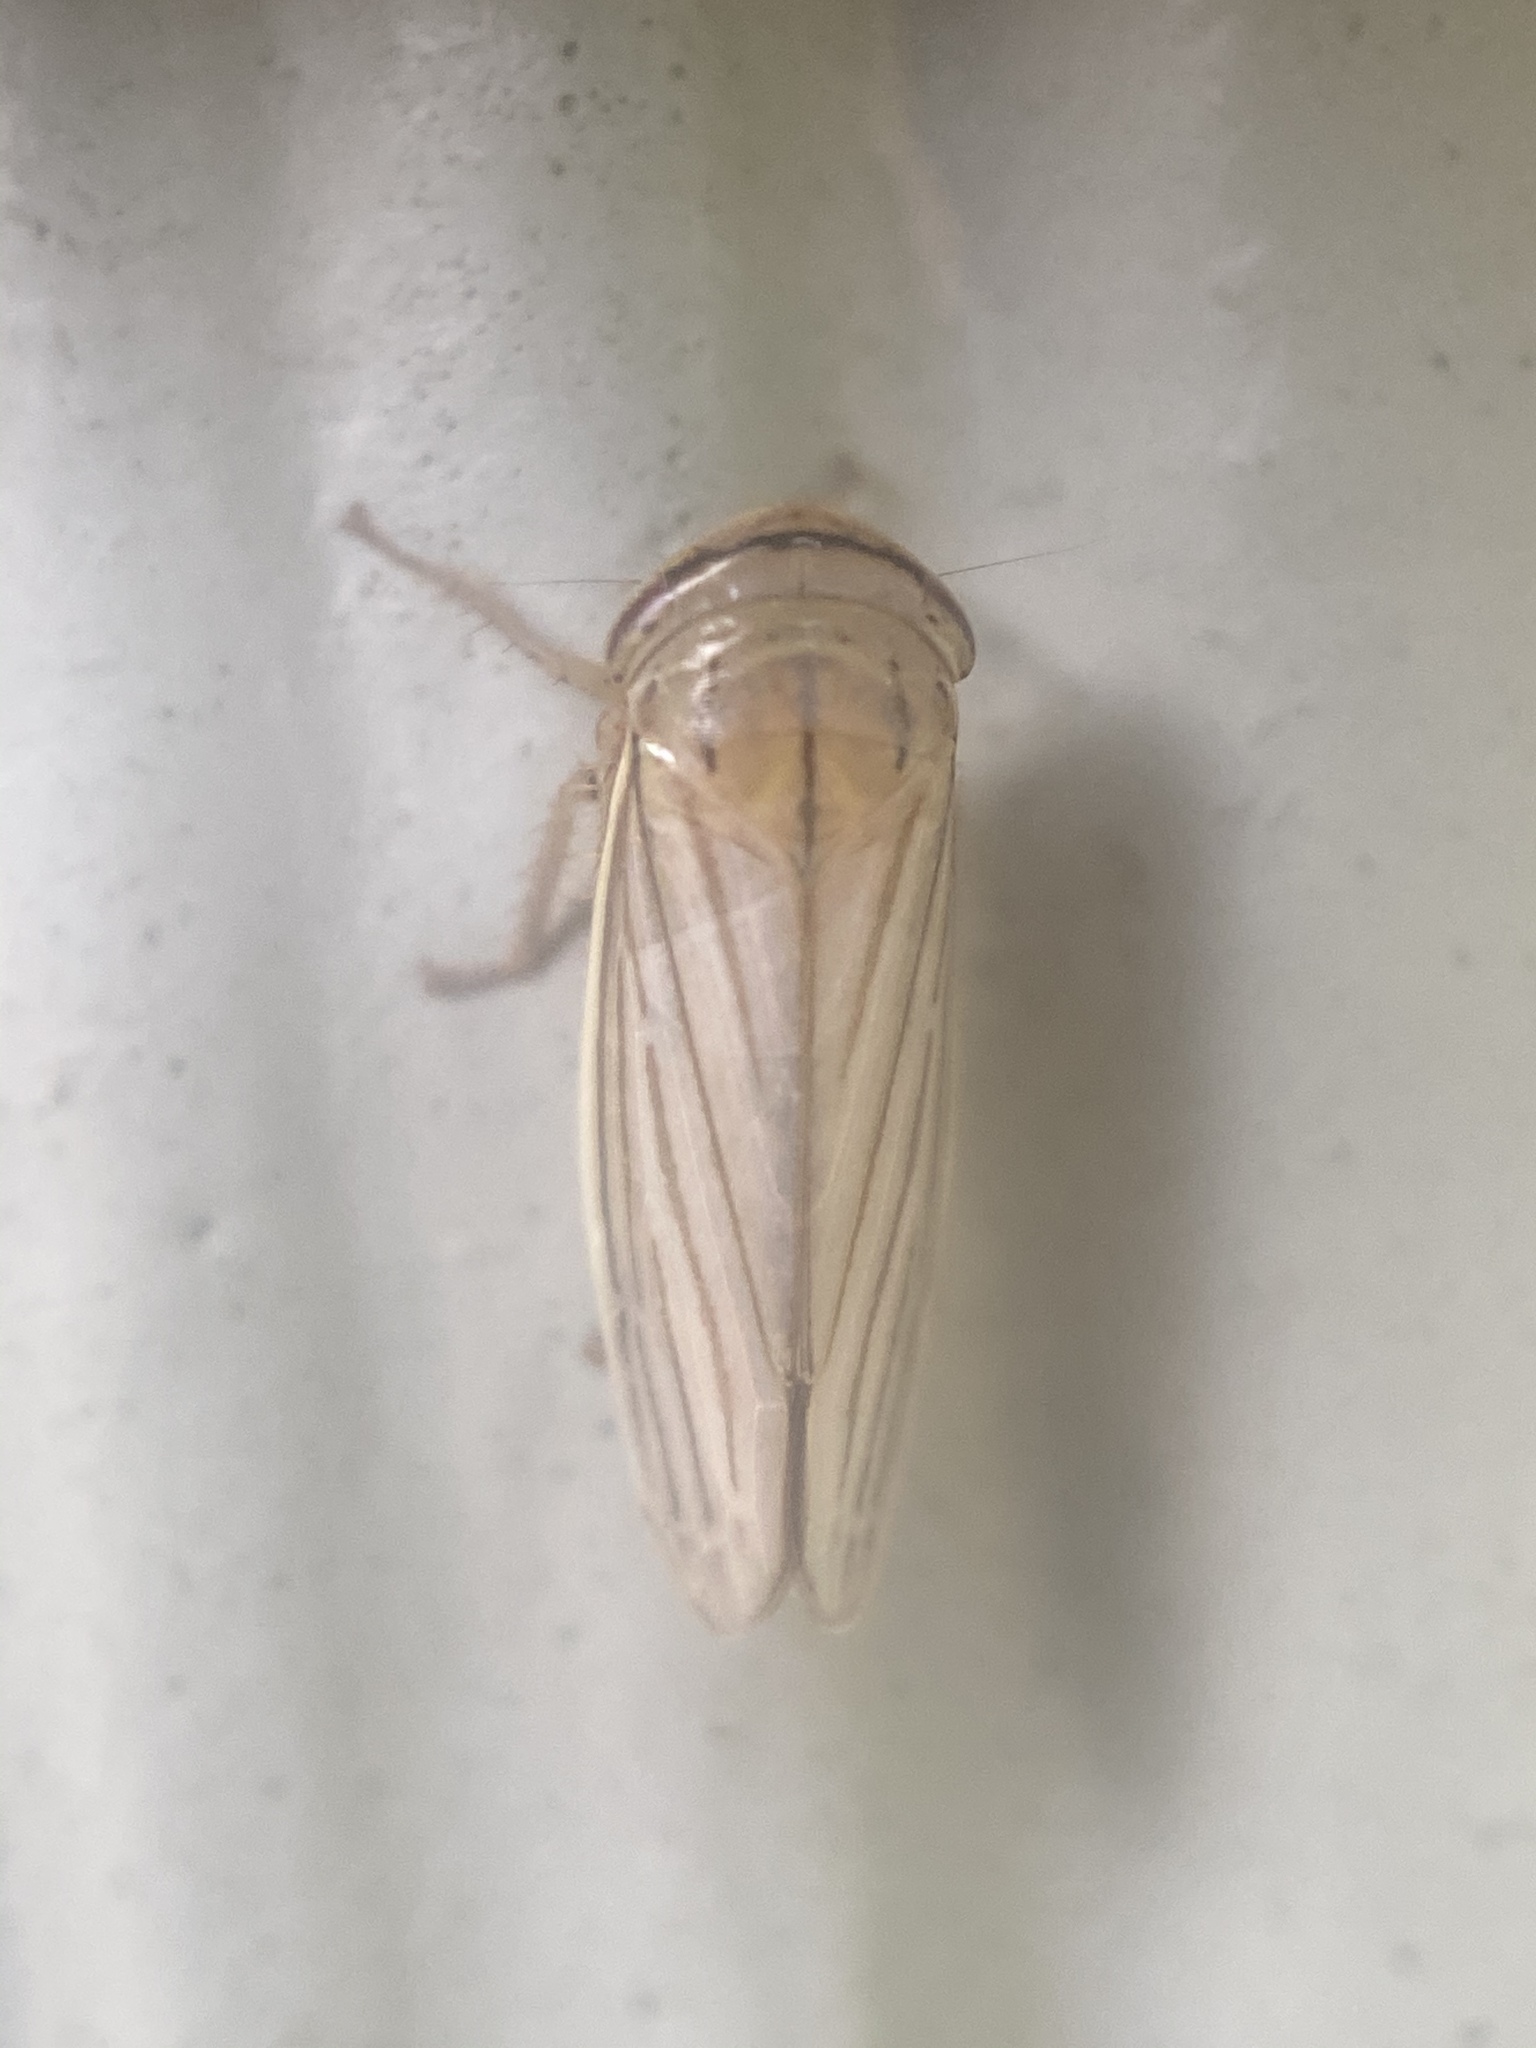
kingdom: Animalia
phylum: Arthropoda
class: Insecta
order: Hemiptera
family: Cicadellidae
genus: Athysanus
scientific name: Athysanus argentarius
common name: Silver leafhopper
